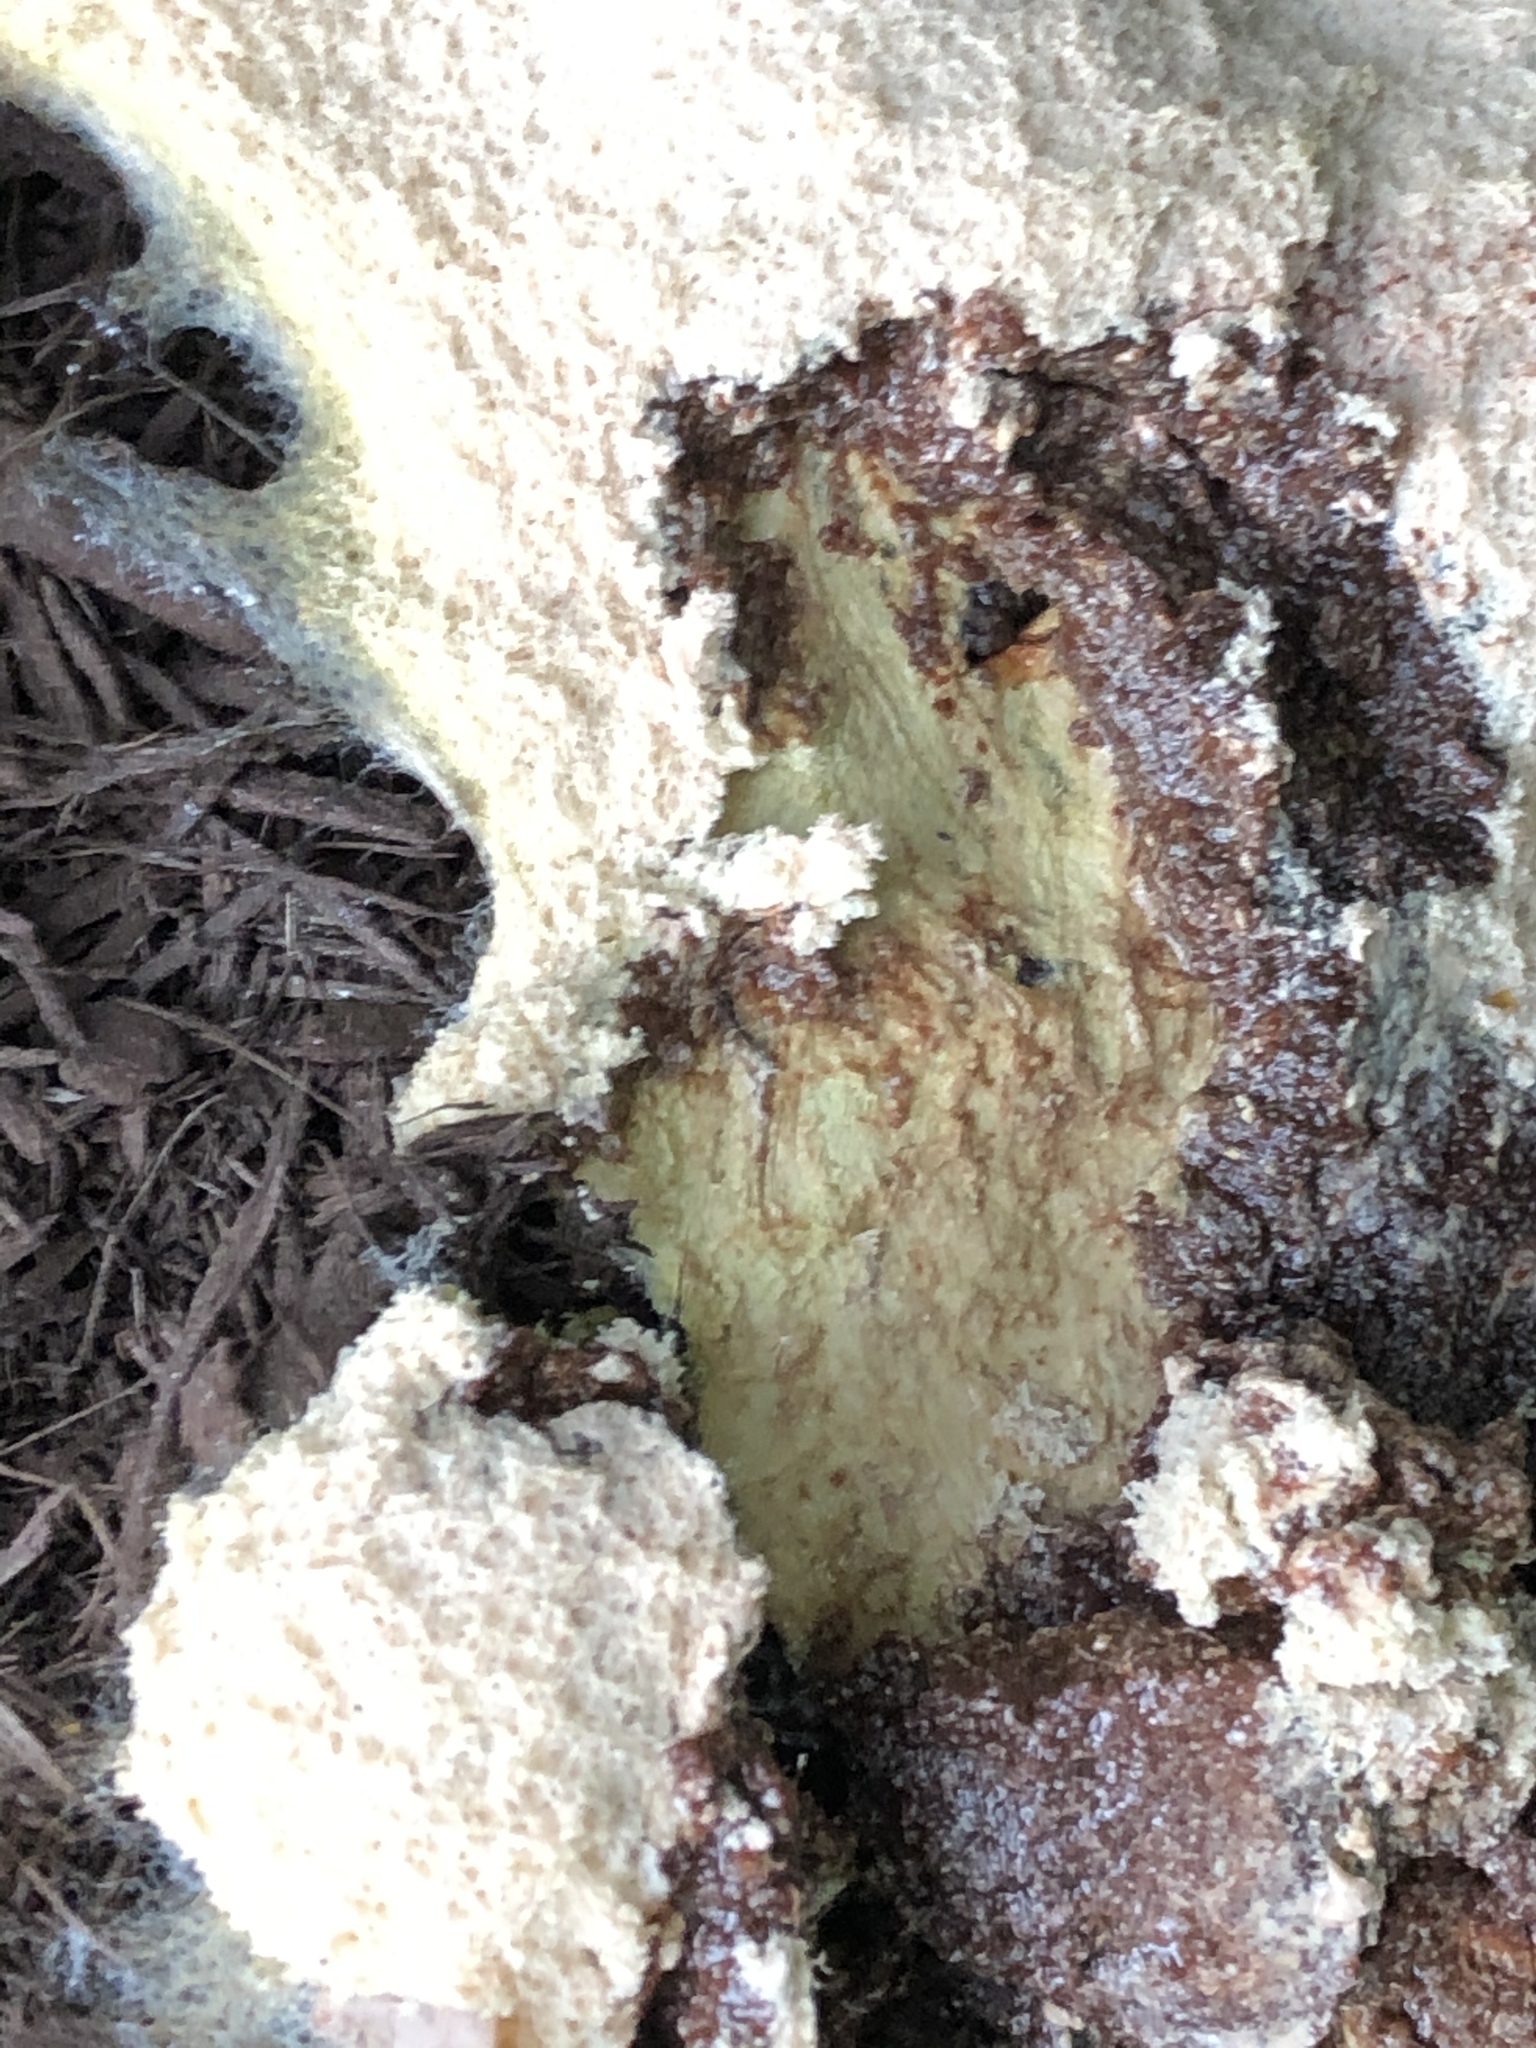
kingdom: Protozoa
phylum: Mycetozoa
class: Myxomycetes
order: Physarales
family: Physaraceae
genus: Fuligo
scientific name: Fuligo septica
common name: Dog vomit slime mold
